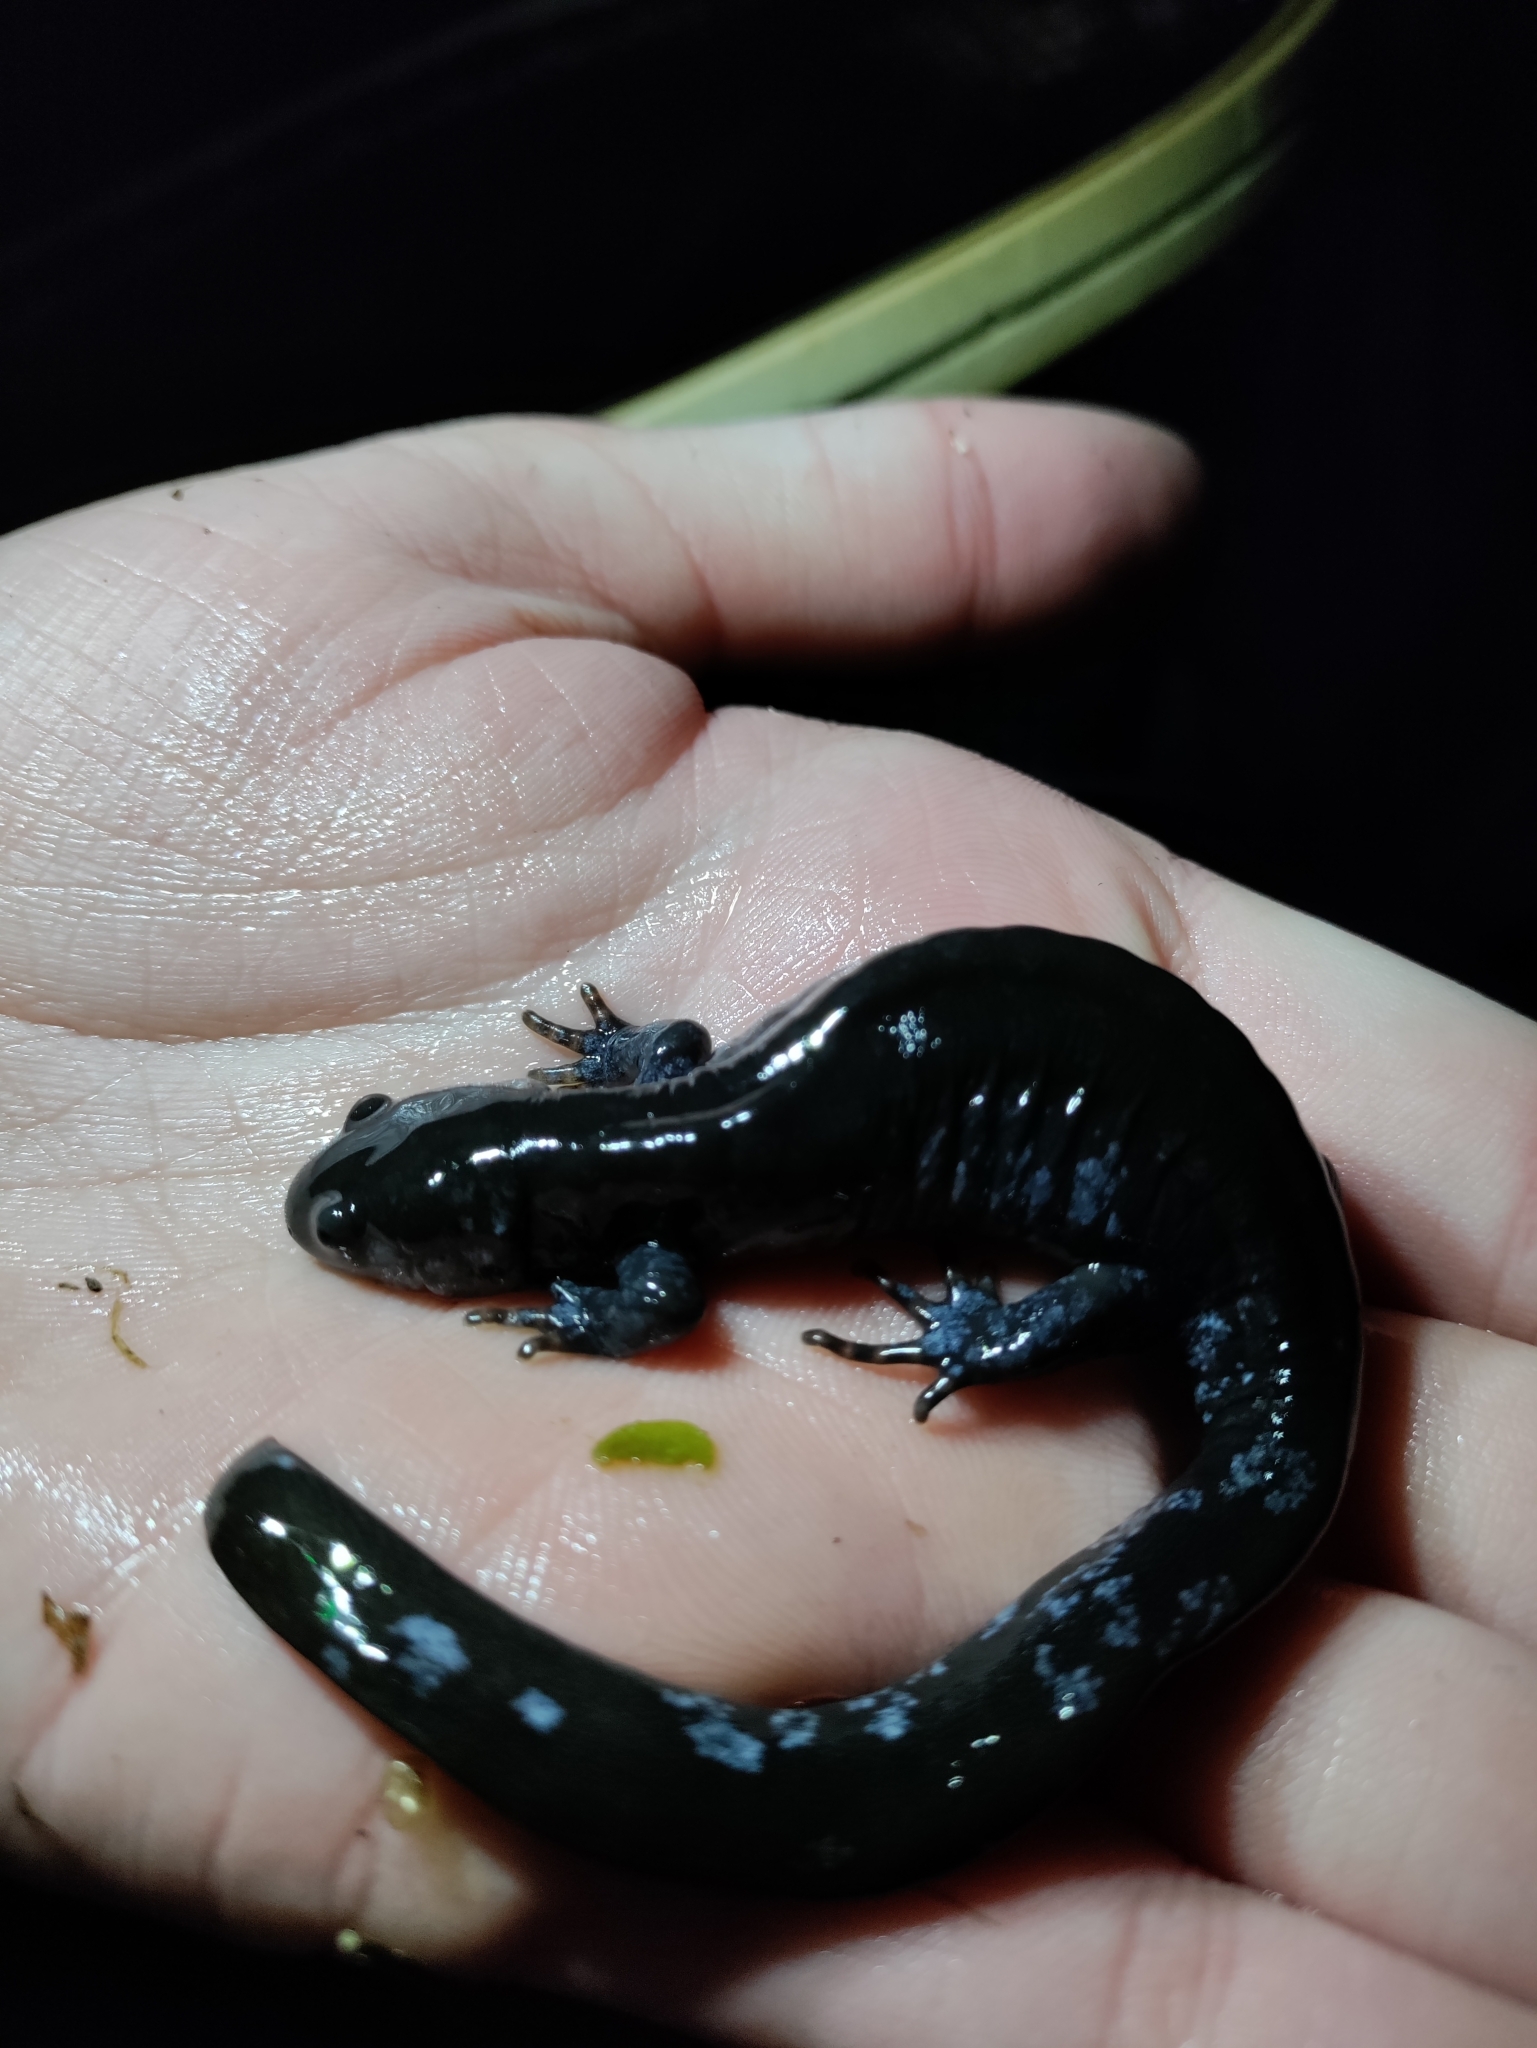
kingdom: Animalia
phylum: Chordata
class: Amphibia
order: Caudata
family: Ambystomatidae
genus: Ambystoma
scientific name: Ambystoma unisexual
